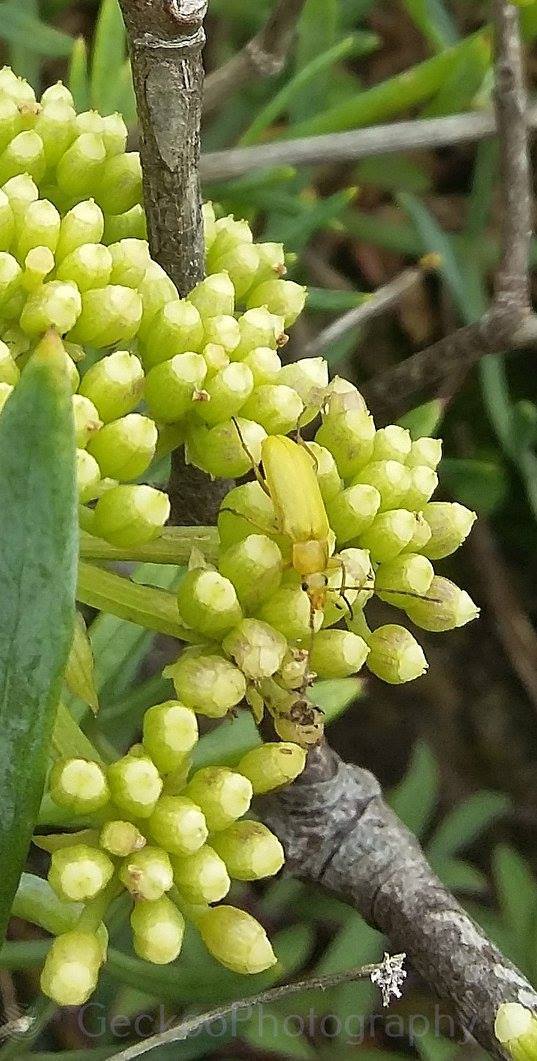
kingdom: Animalia
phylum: Arthropoda
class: Insecta
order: Coleoptera
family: Tenebrionidae
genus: Cteniopus
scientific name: Cteniopus sulphureus
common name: Sulphur beetle
